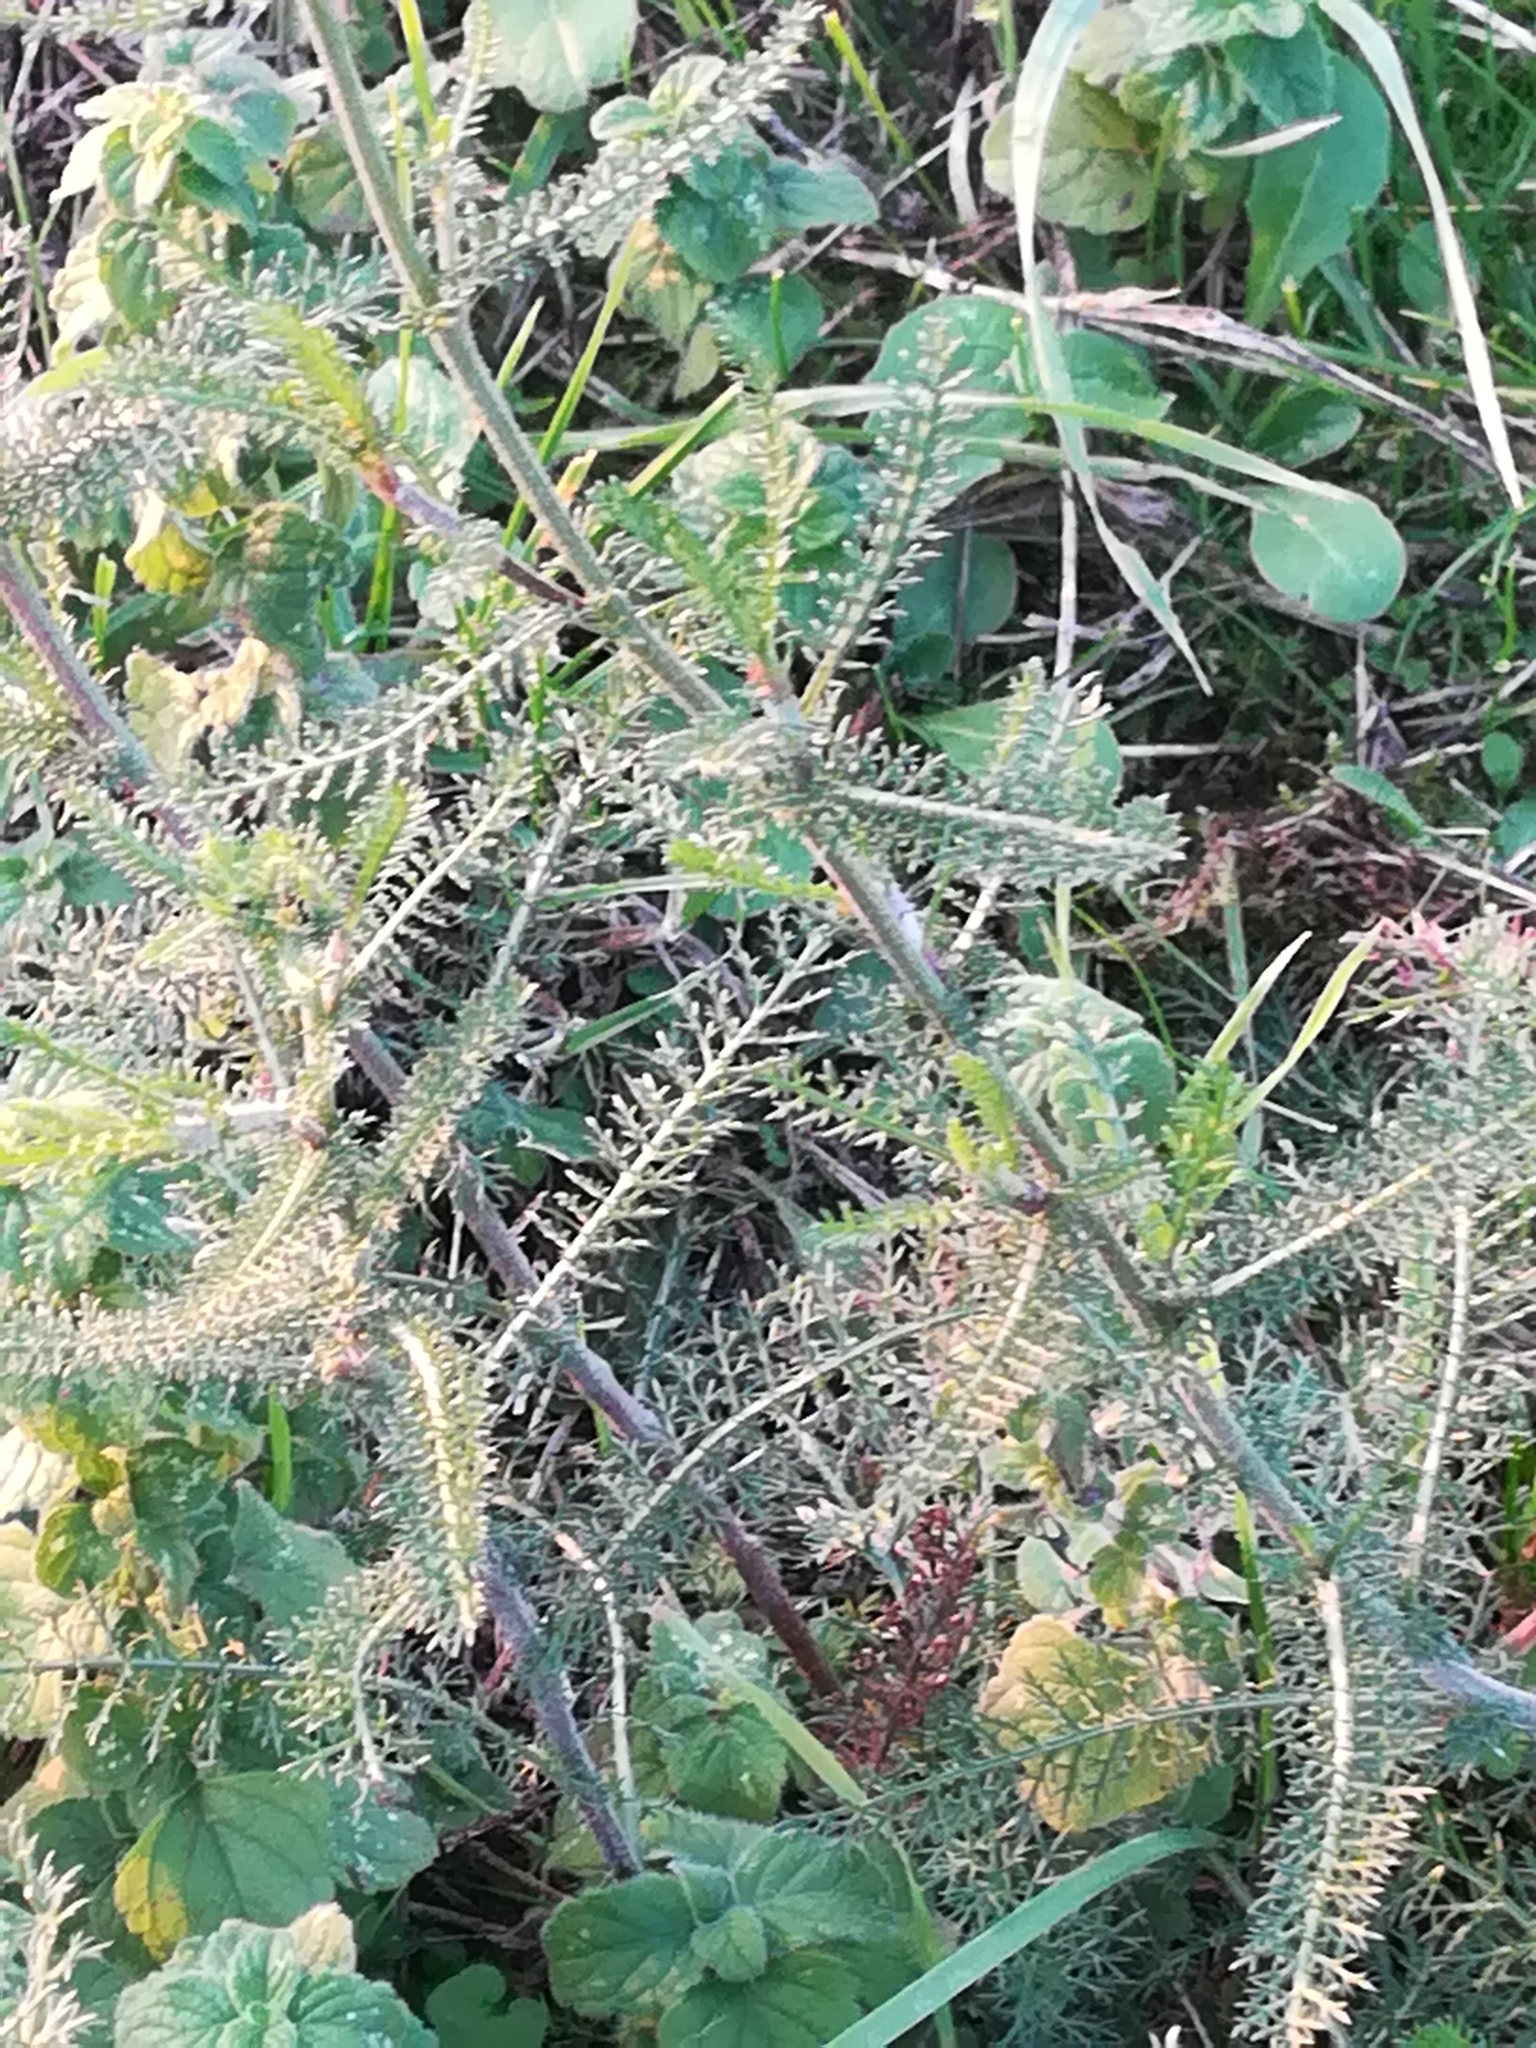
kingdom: Plantae
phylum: Tracheophyta
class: Magnoliopsida
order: Asterales
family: Asteraceae
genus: Achillea
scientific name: Achillea setacea
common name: Bristly yarrow
